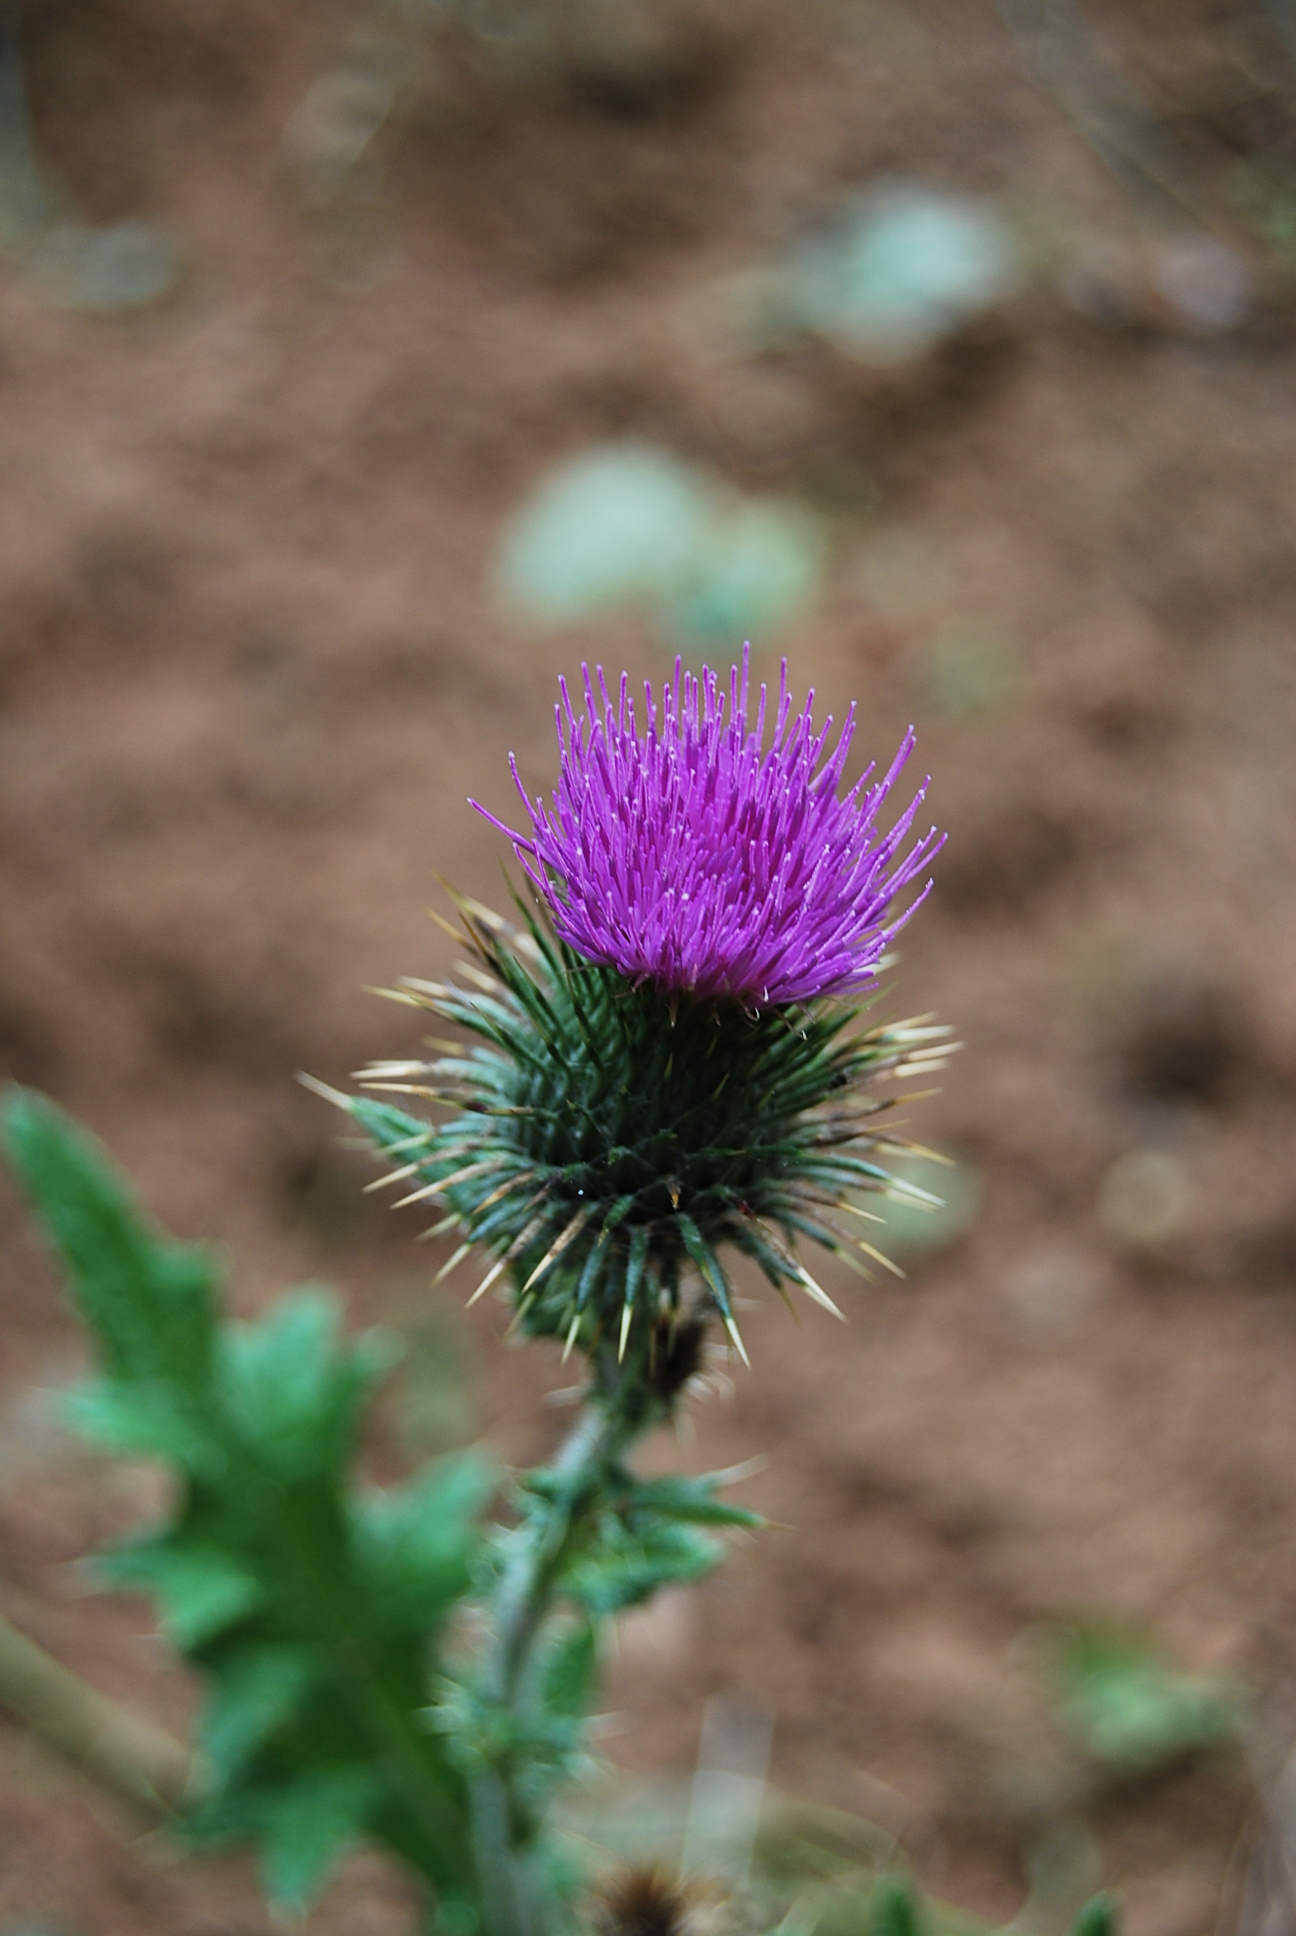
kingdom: Plantae
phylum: Tracheophyta
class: Magnoliopsida
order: Asterales
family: Asteraceae
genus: Cirsium
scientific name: Cirsium vulgare
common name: Bull thistle
